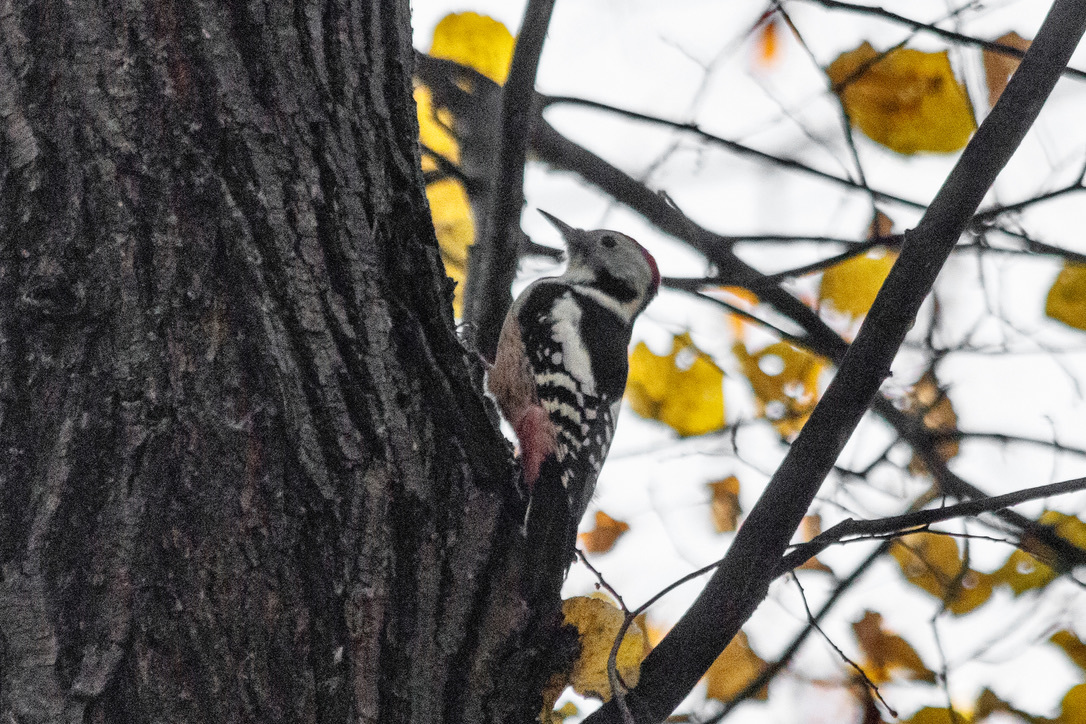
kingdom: Animalia
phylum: Chordata
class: Aves
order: Piciformes
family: Picidae
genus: Dendrocoptes
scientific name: Dendrocoptes medius
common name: Middle spotted woodpecker
